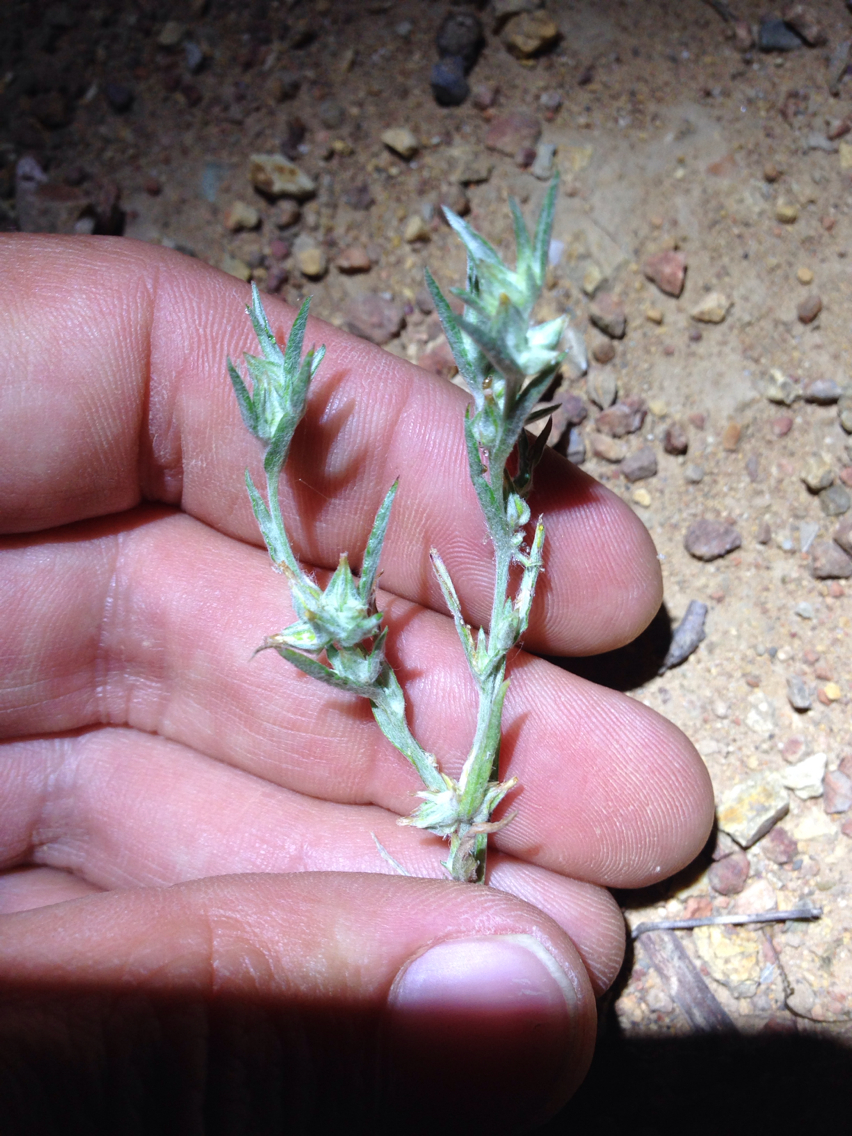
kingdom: Plantae
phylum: Tracheophyta
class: Magnoliopsida
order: Asterales
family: Asteraceae
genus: Logfia
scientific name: Logfia gallica
